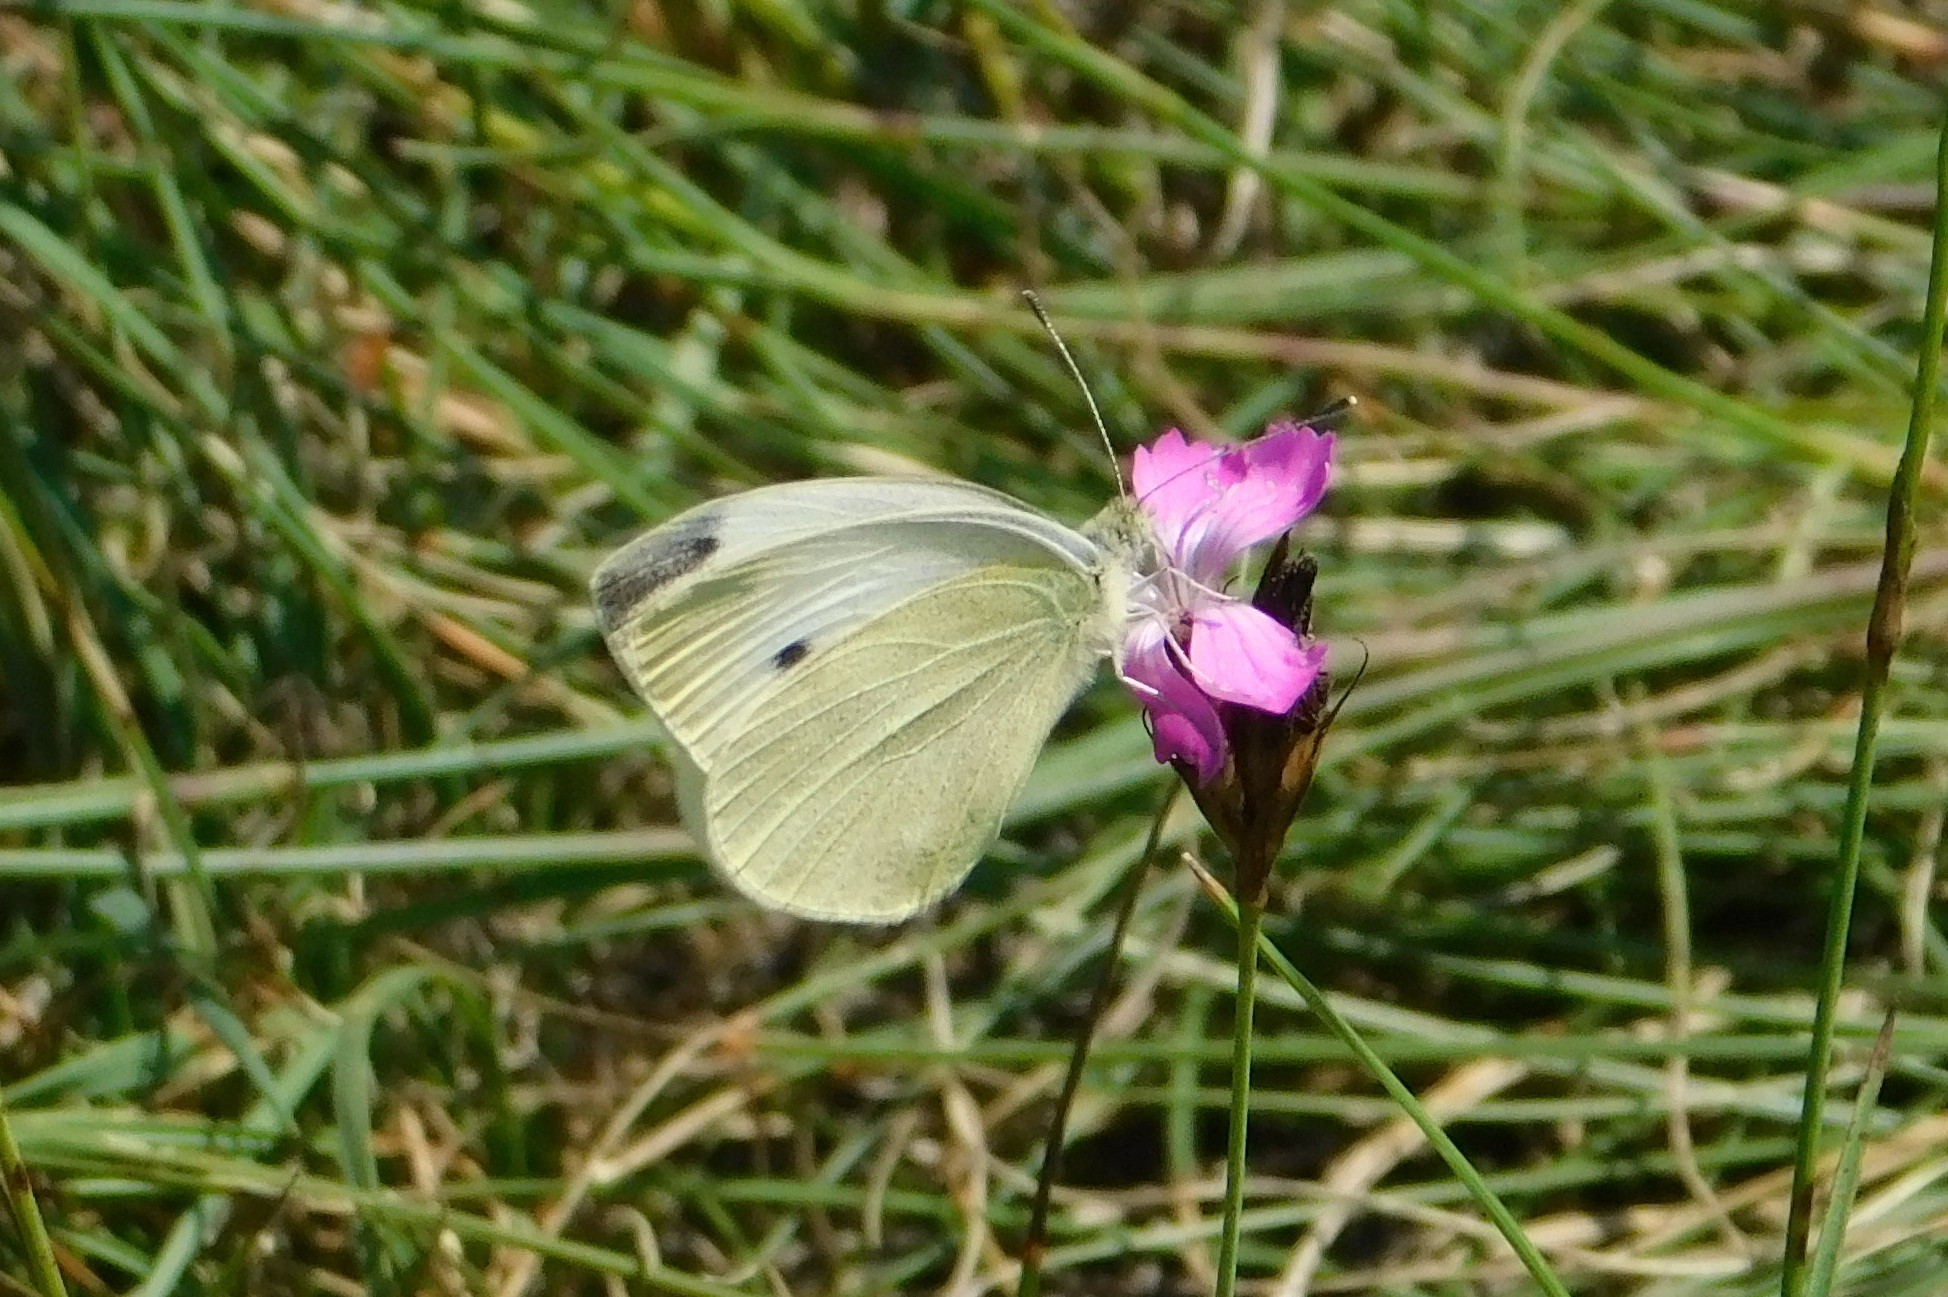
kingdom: Animalia
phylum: Arthropoda
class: Insecta
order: Lepidoptera
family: Pieridae
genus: Pieris
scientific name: Pieris rapae
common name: Small white
